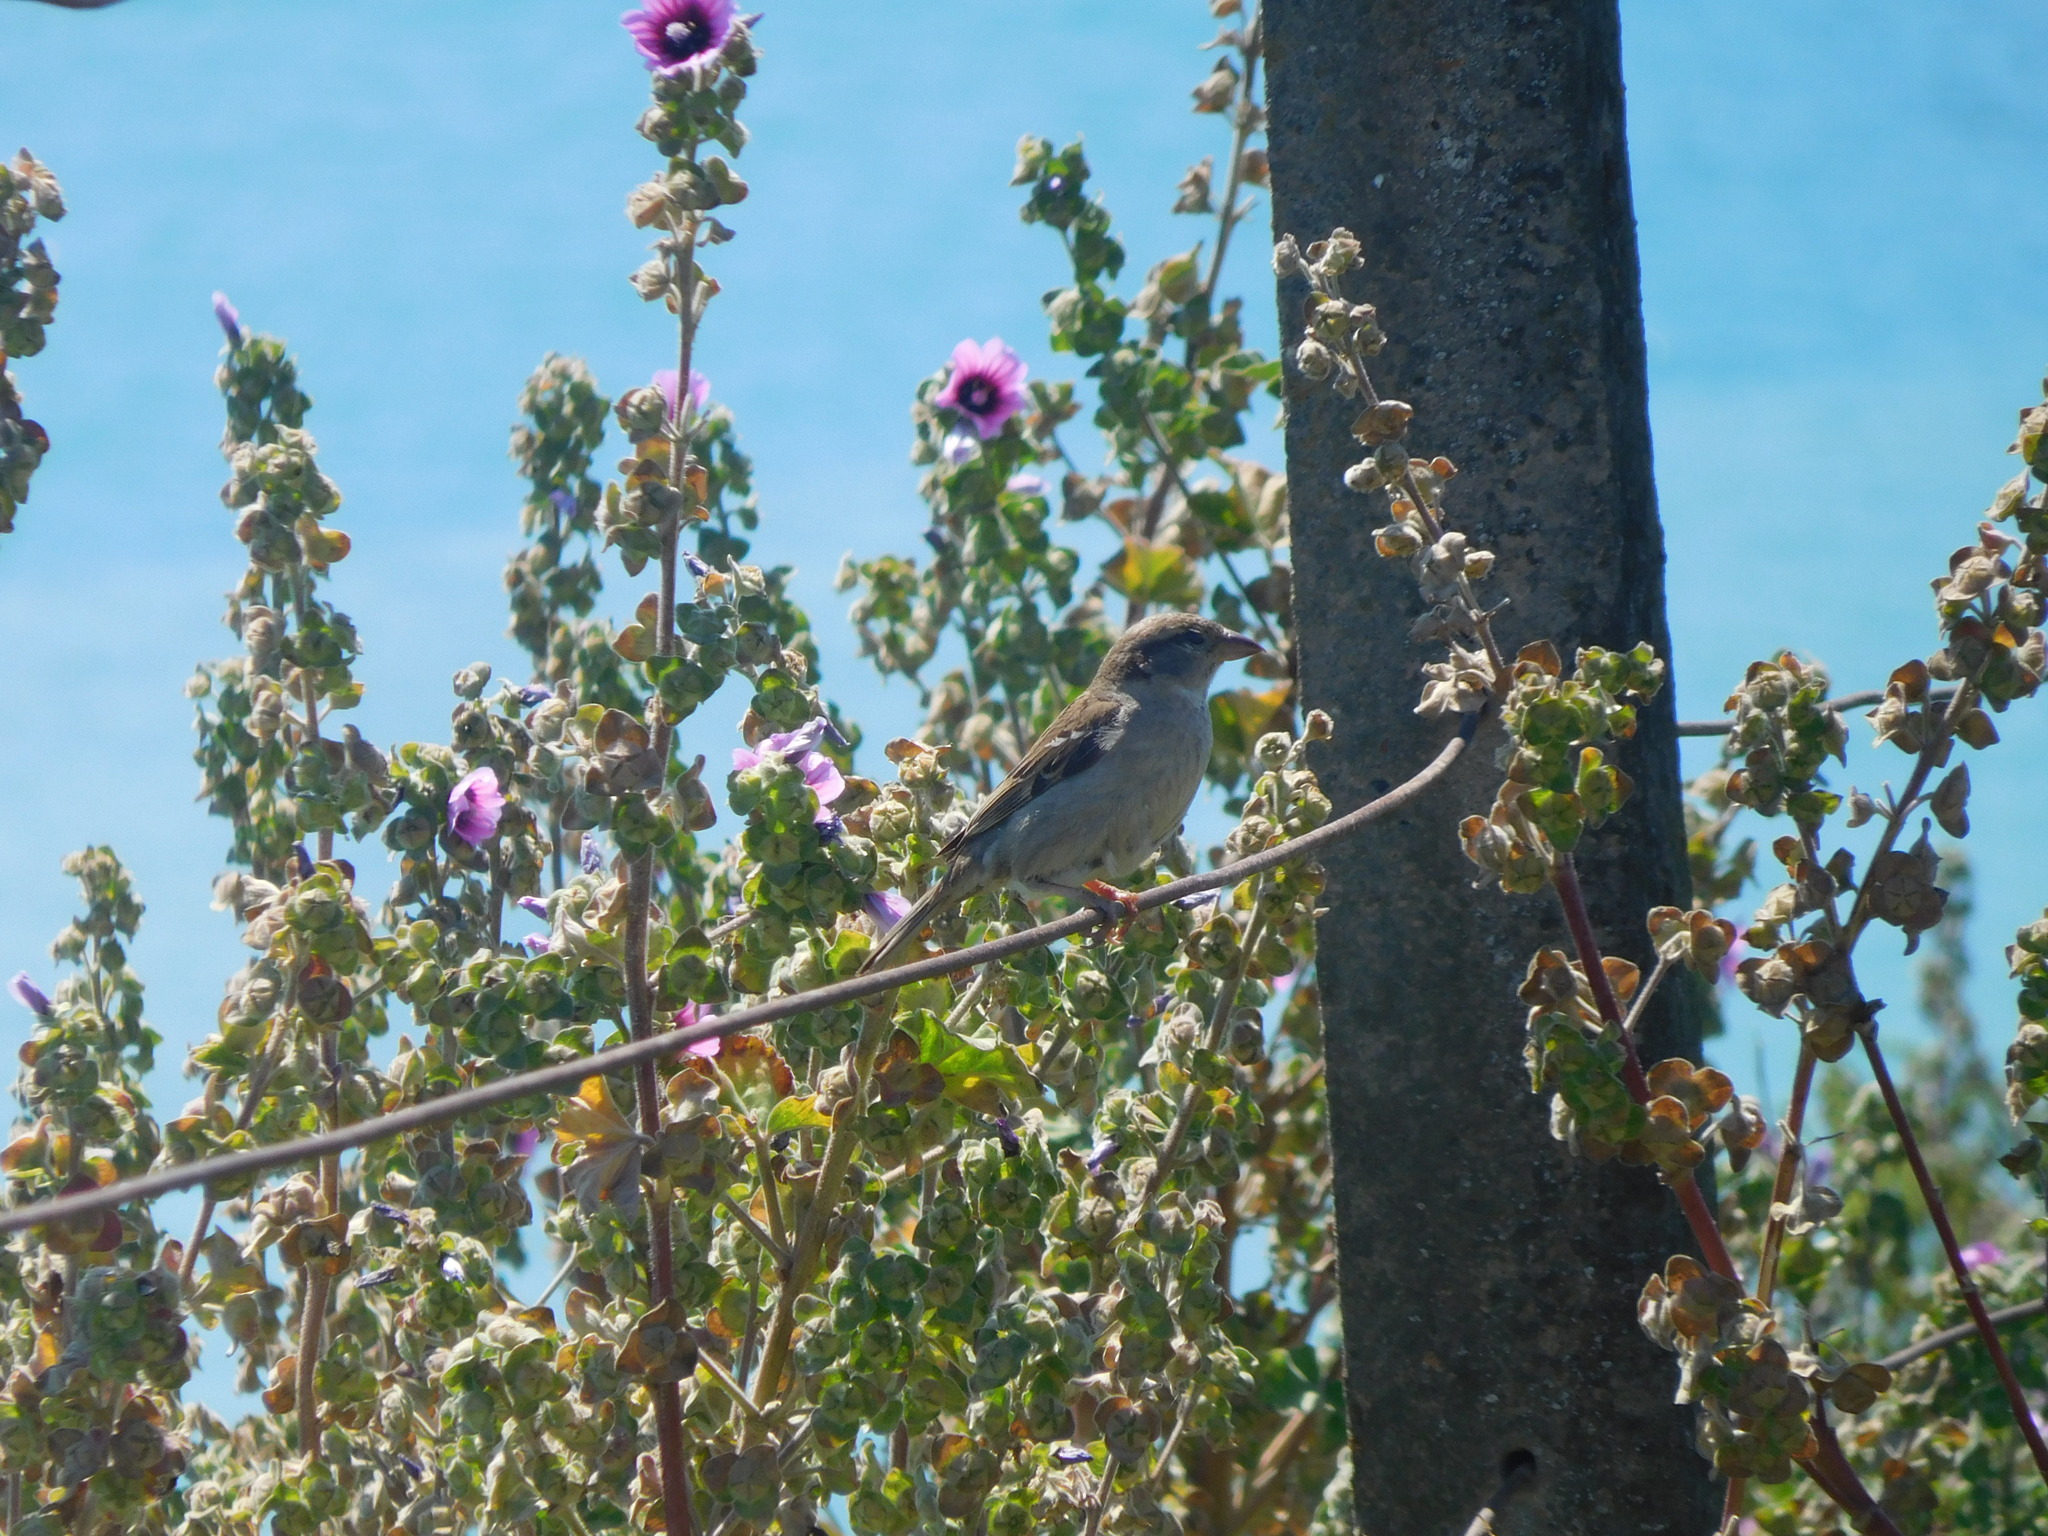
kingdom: Animalia
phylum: Chordata
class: Aves
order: Passeriformes
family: Passeridae
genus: Passer
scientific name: Passer domesticus
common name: House sparrow
